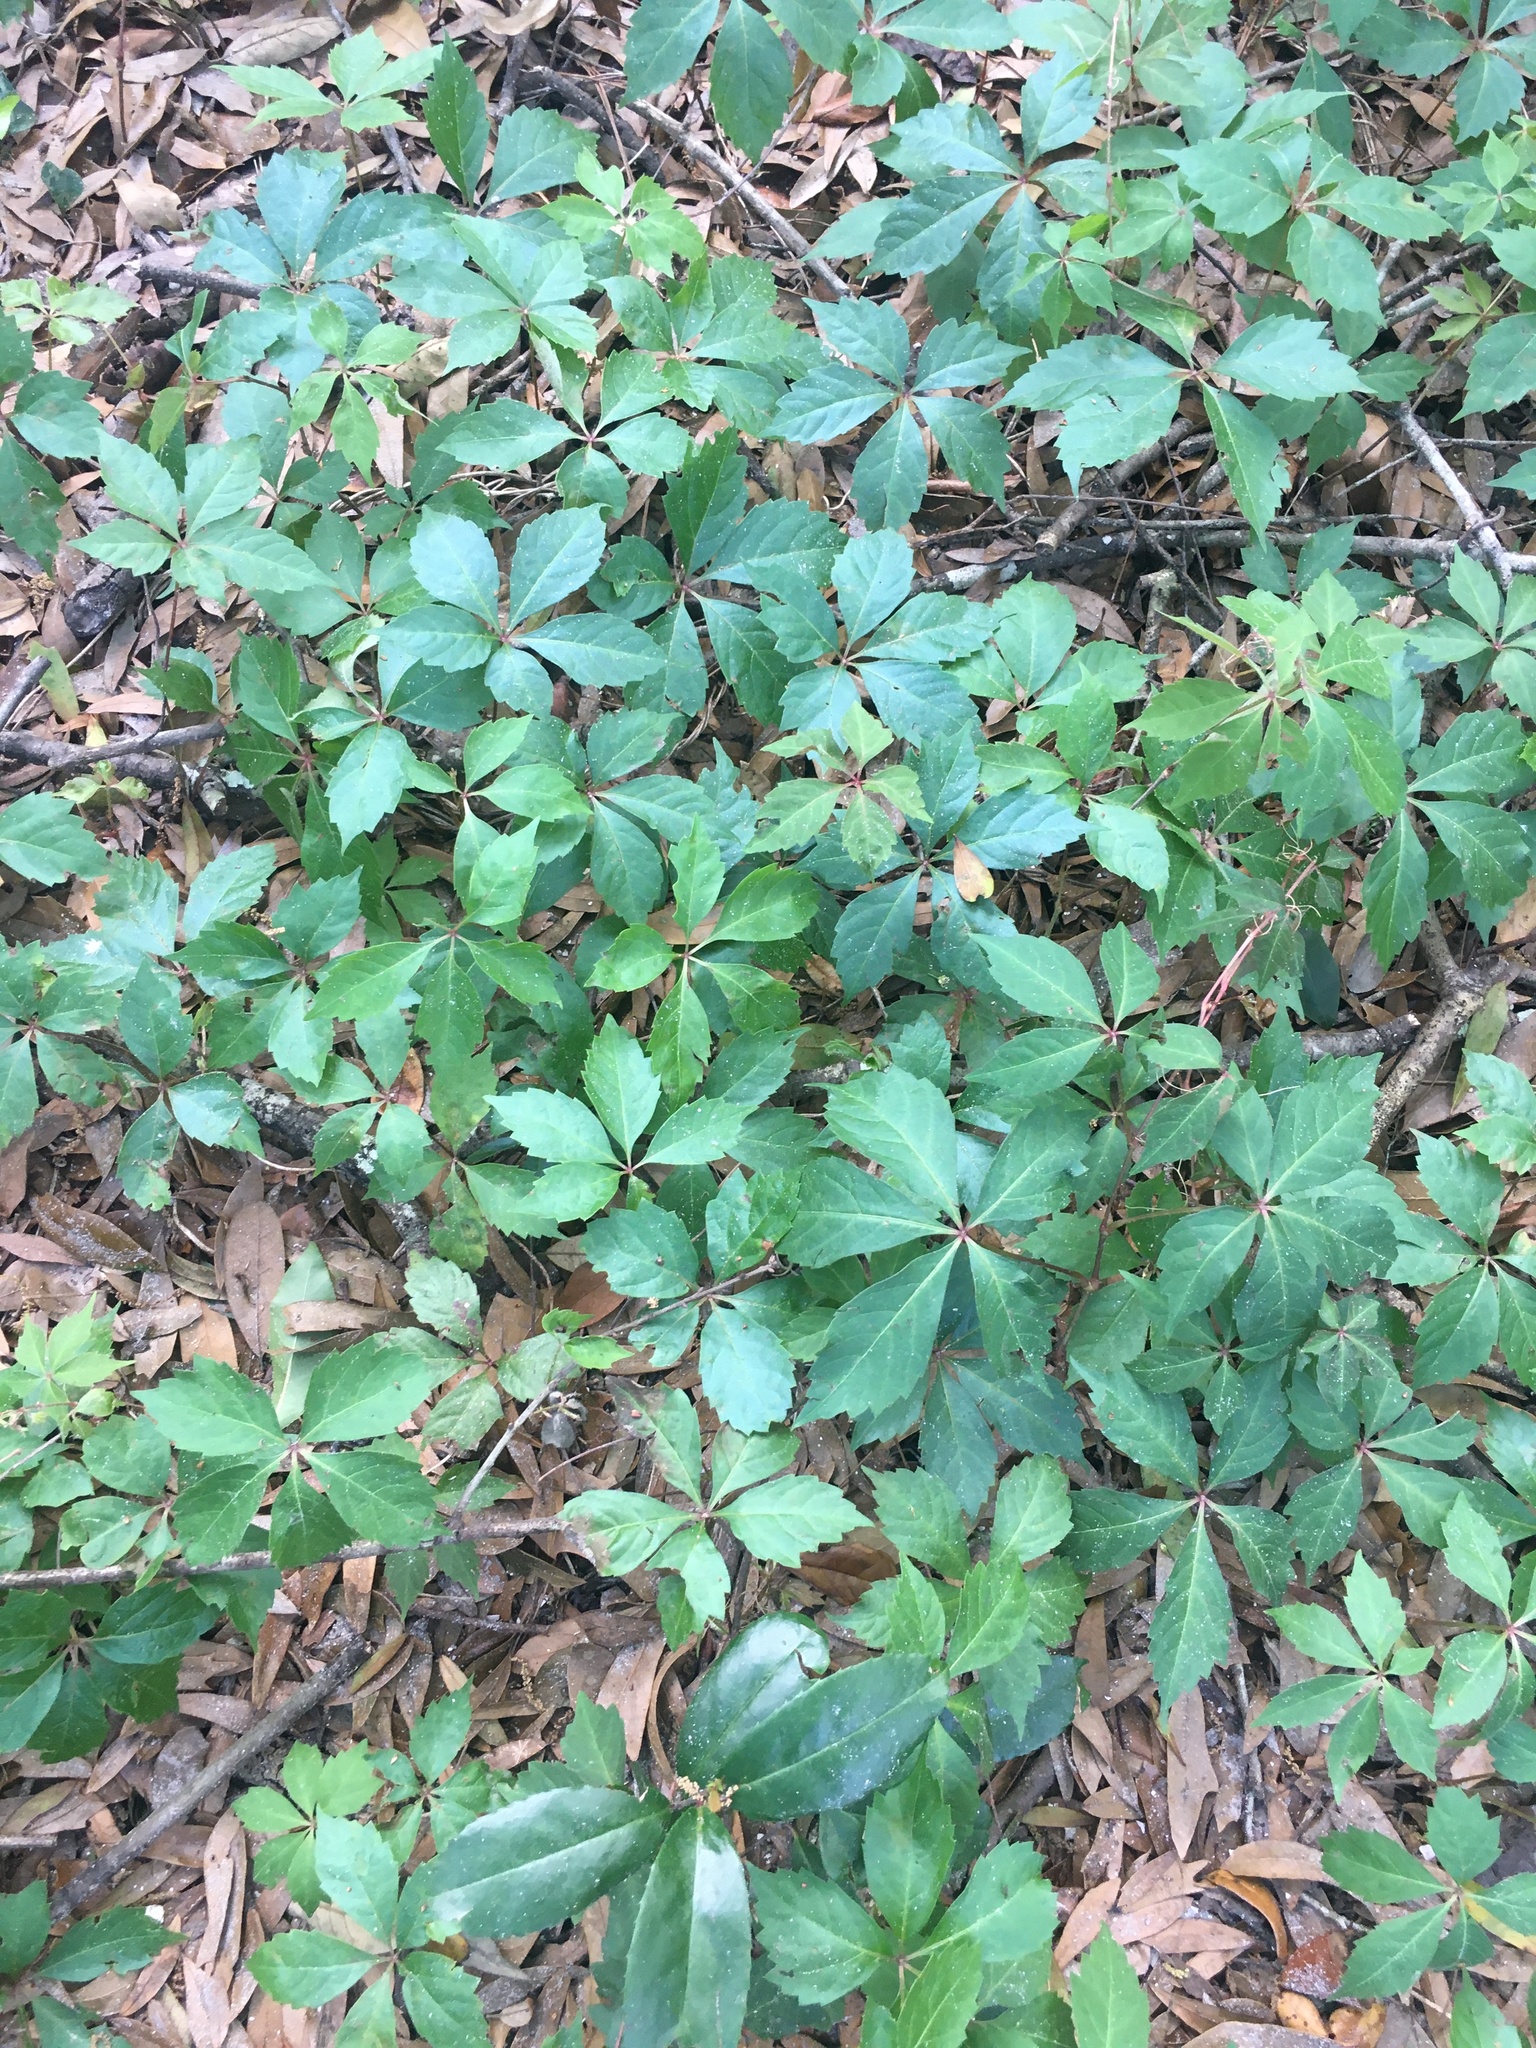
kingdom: Plantae
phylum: Tracheophyta
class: Magnoliopsida
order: Vitales
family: Vitaceae
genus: Parthenocissus
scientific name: Parthenocissus quinquefolia
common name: Virginia-creeper
